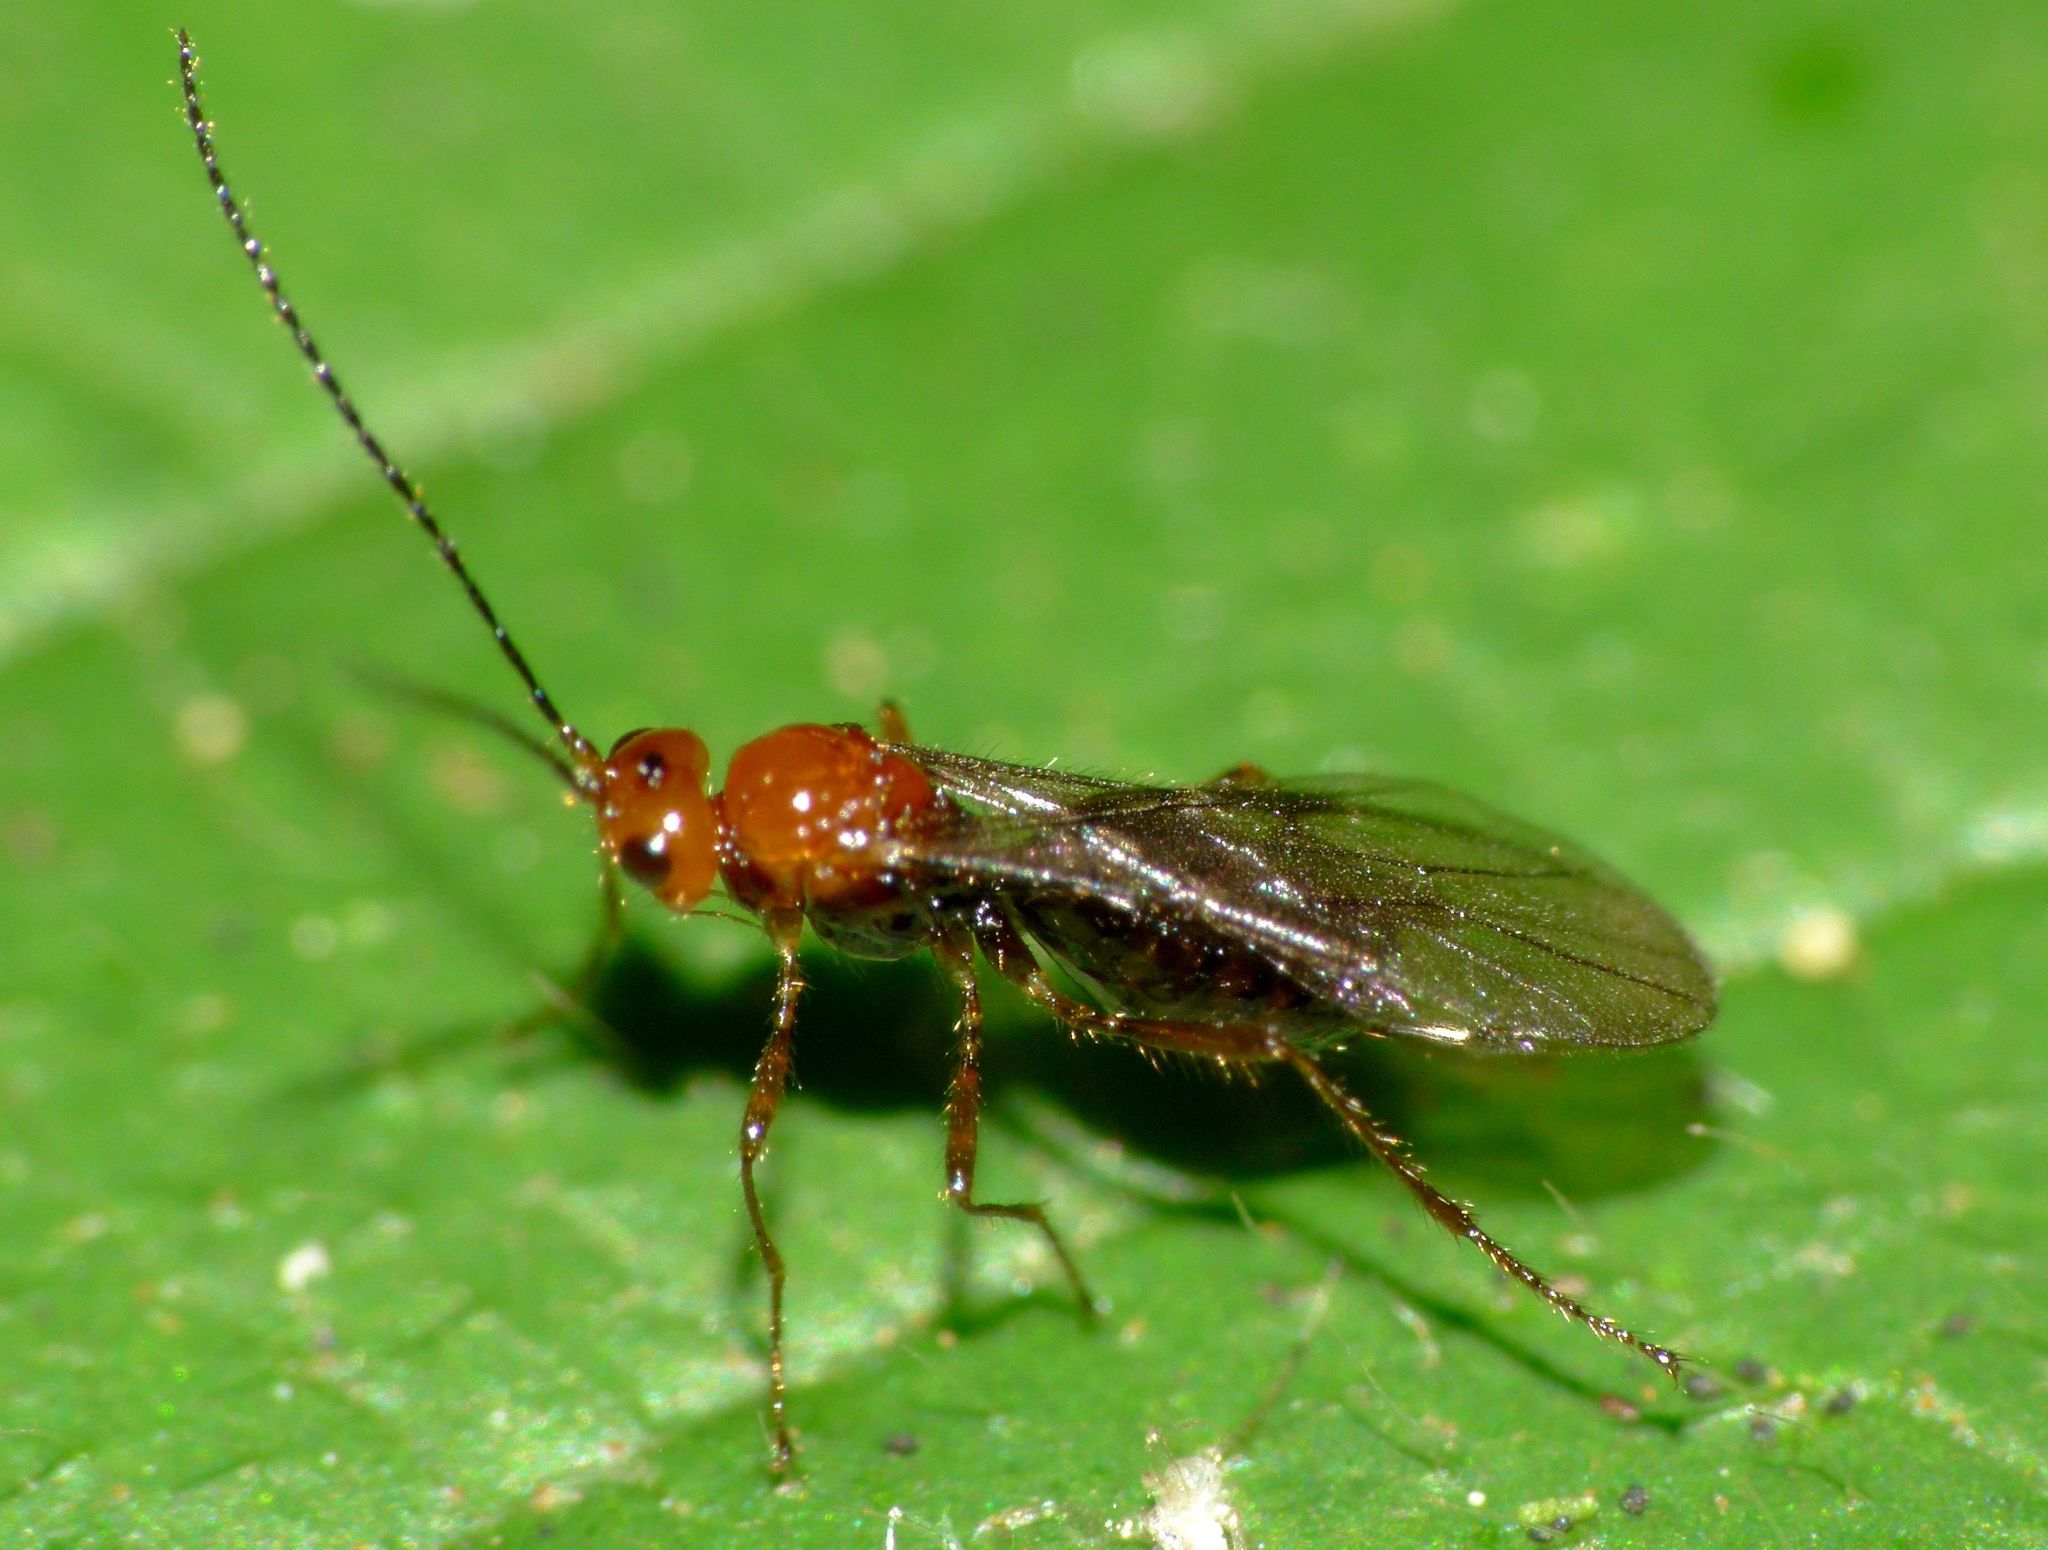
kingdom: Animalia
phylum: Arthropoda
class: Insecta
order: Hymenoptera
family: Braconidae
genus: Asobara
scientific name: Asobara antipoda
